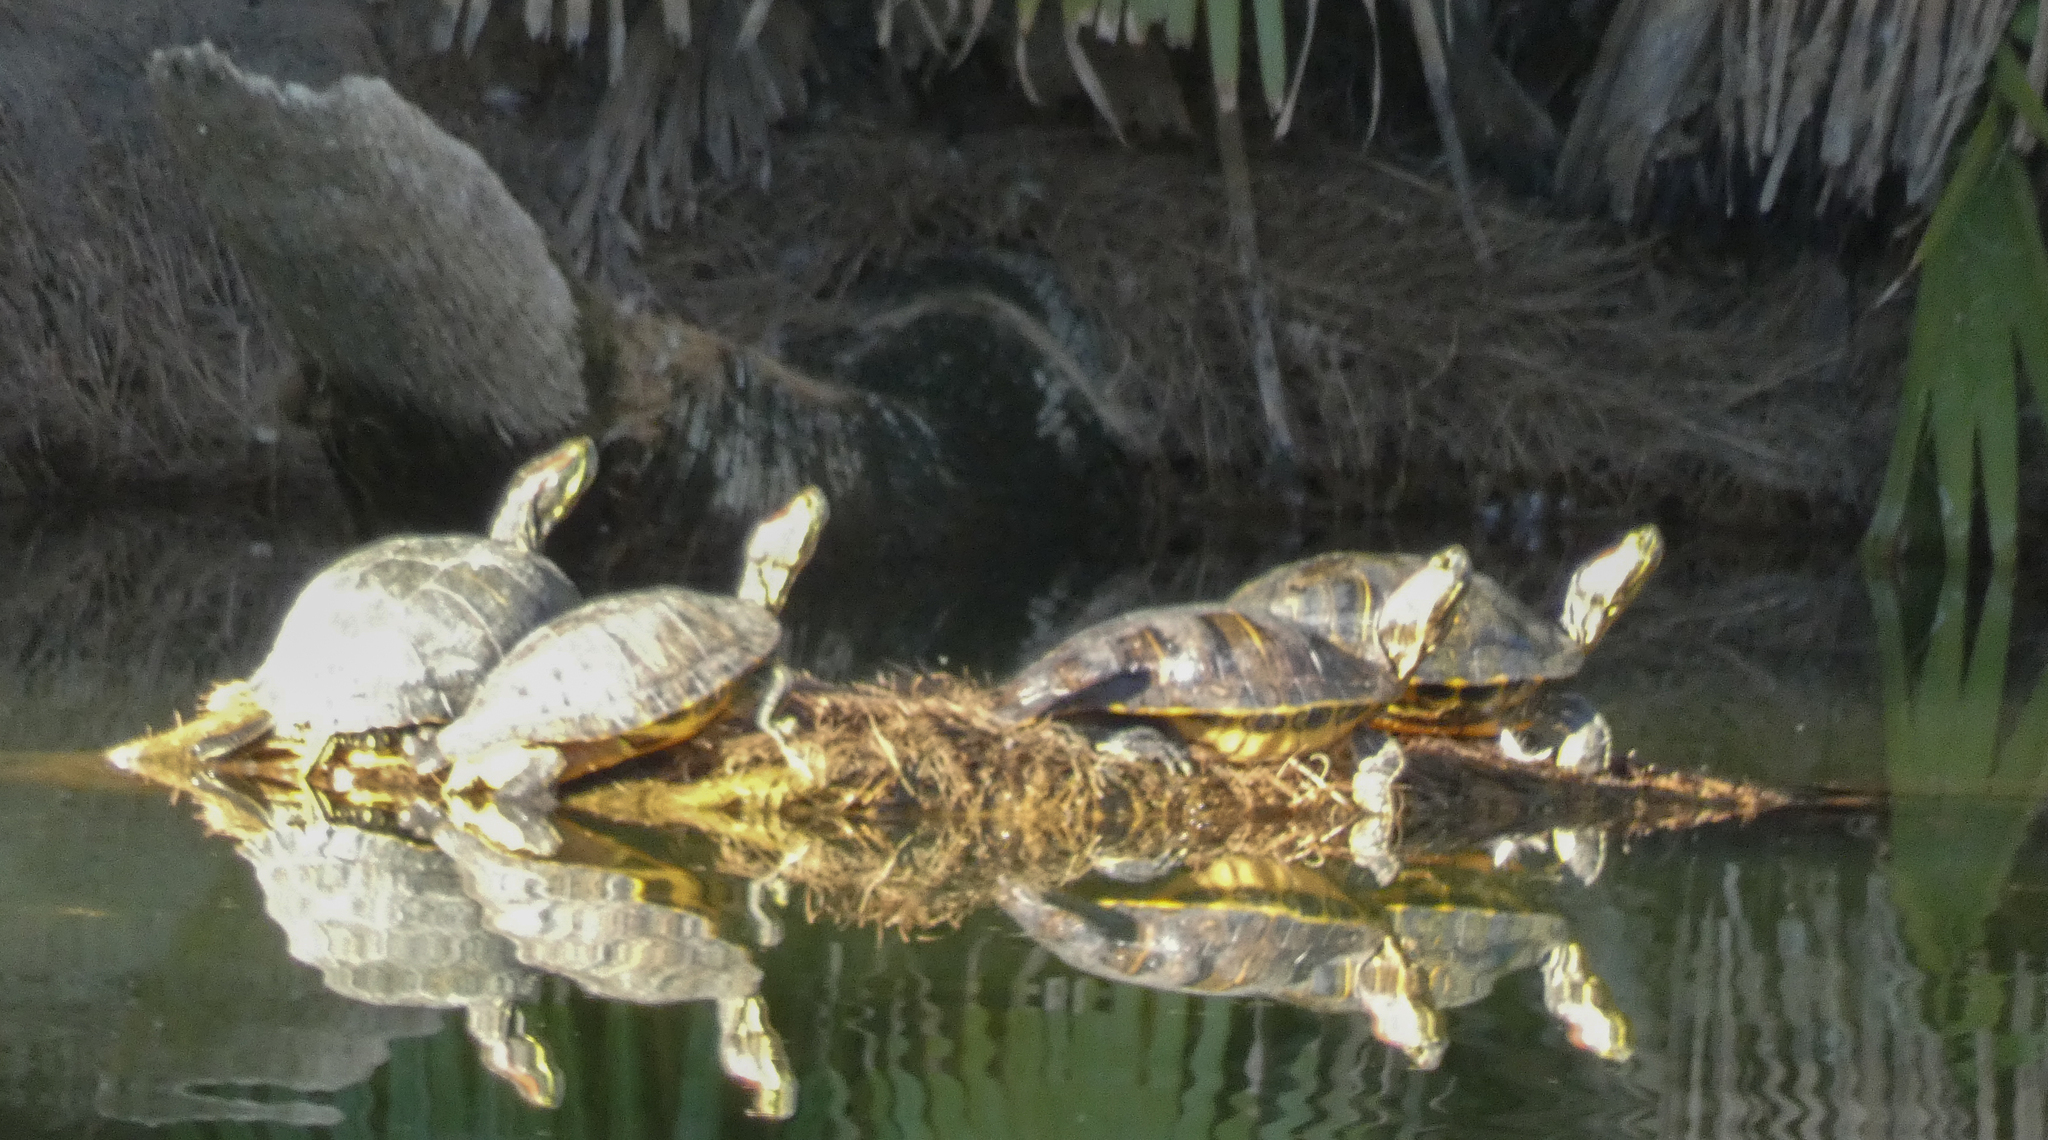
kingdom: Animalia
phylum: Chordata
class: Testudines
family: Emydidae
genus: Trachemys
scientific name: Trachemys scripta
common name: Slider
